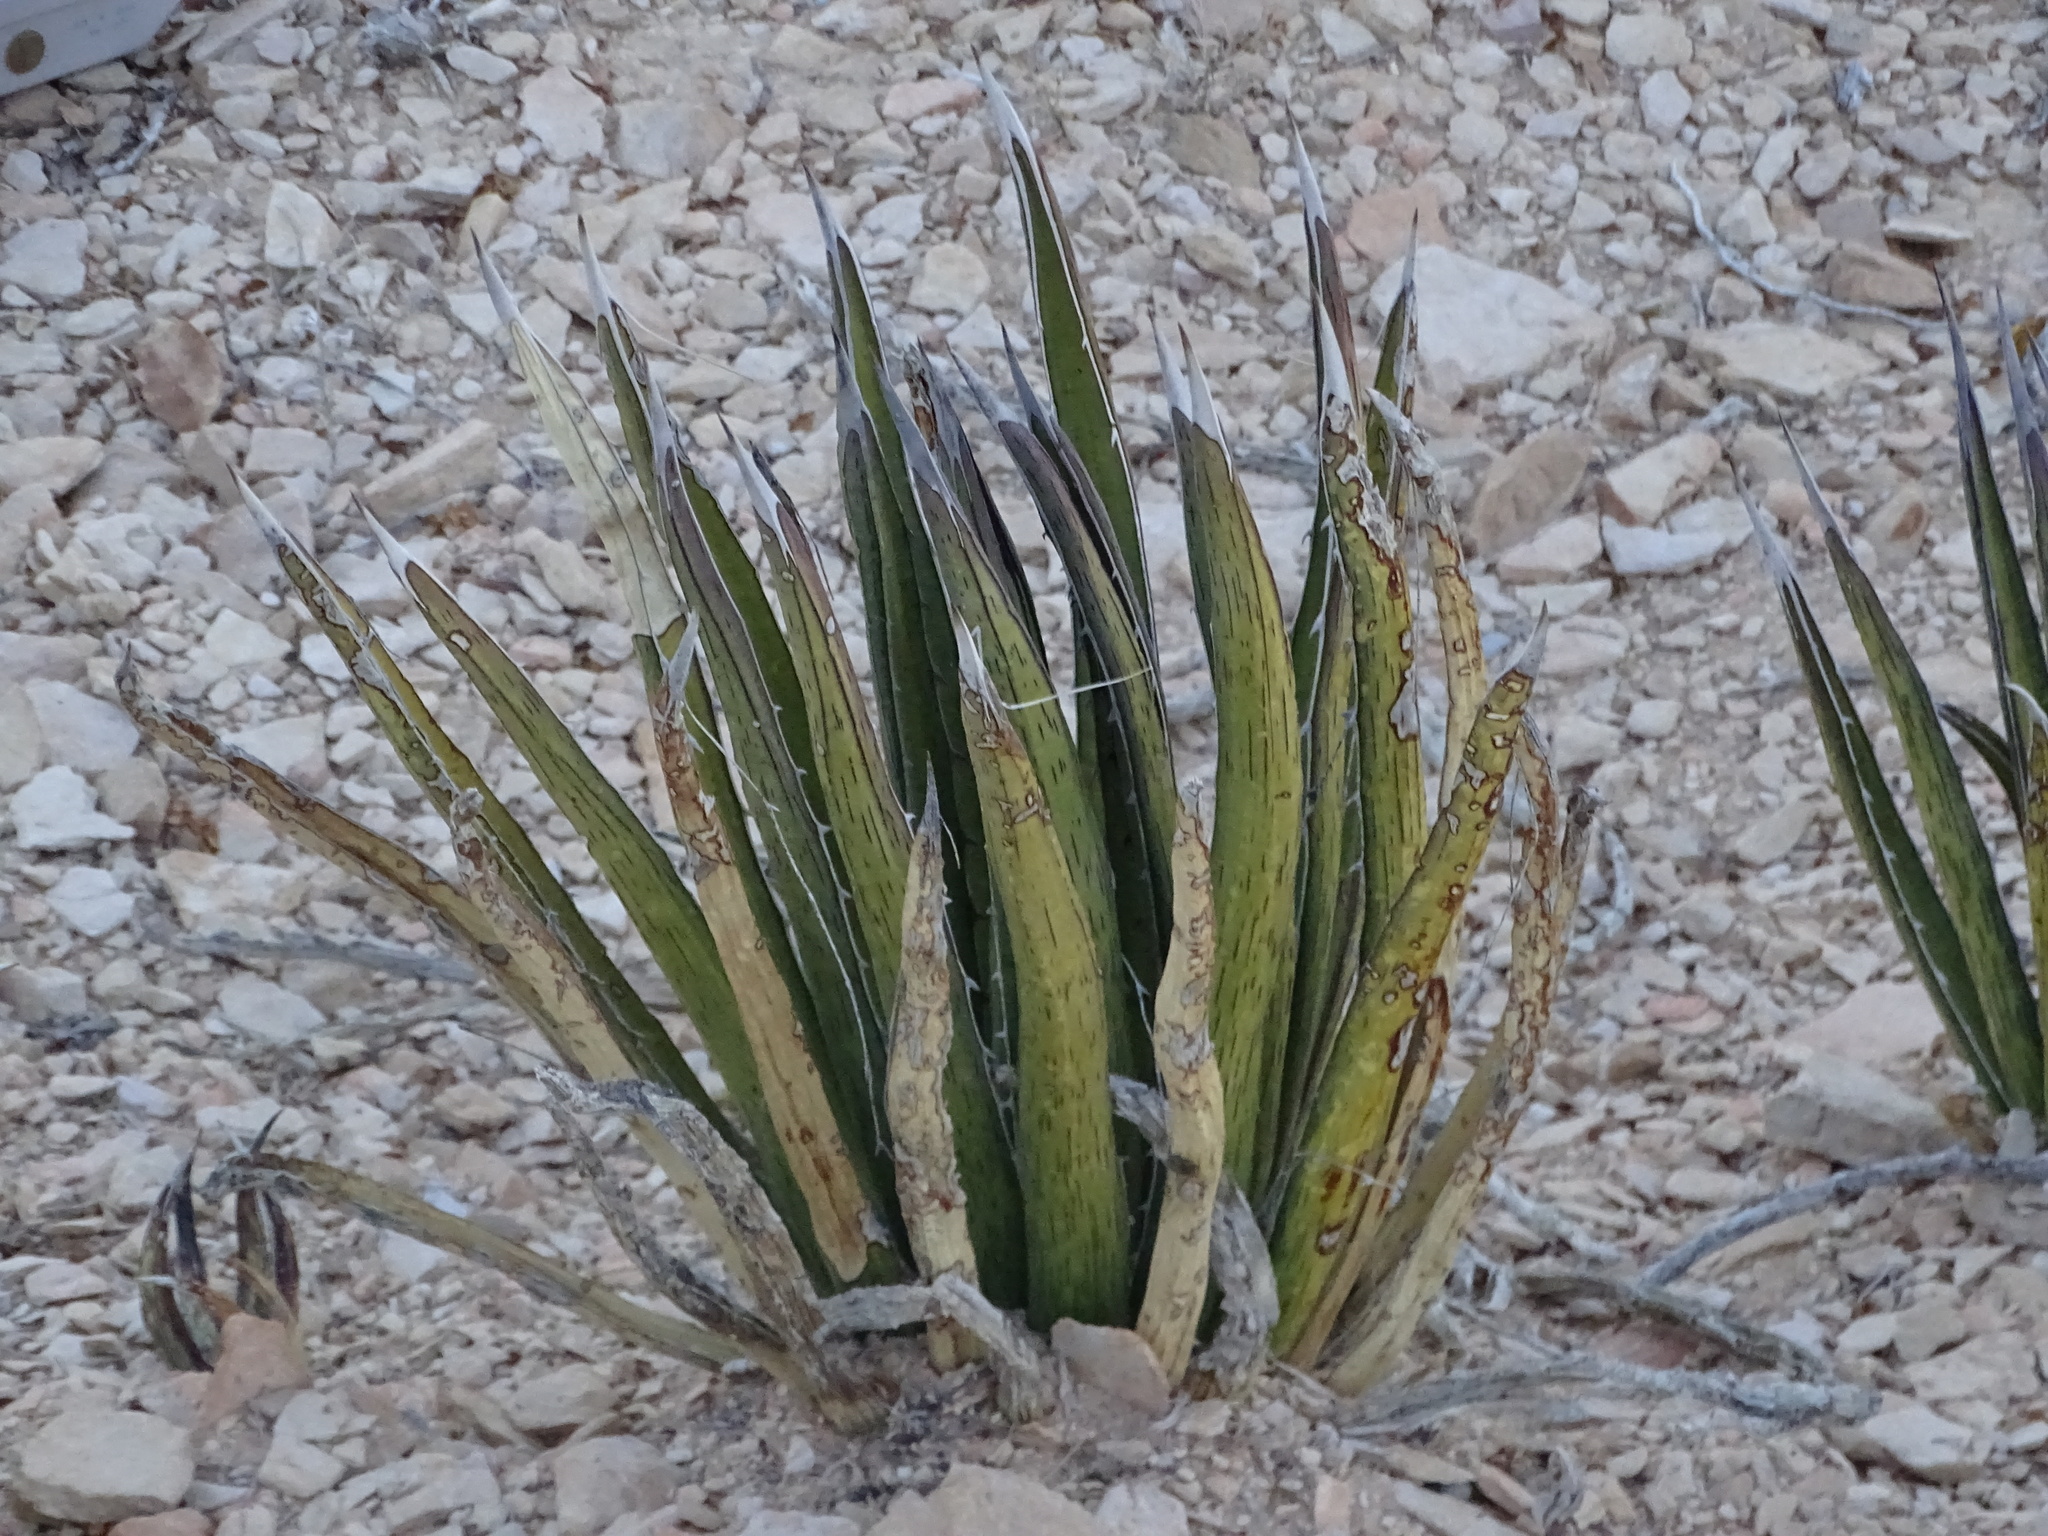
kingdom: Plantae
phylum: Tracheophyta
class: Liliopsida
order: Asparagales
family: Asparagaceae
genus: Agave
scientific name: Agave lechuguilla
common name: Lecheguilla agave
